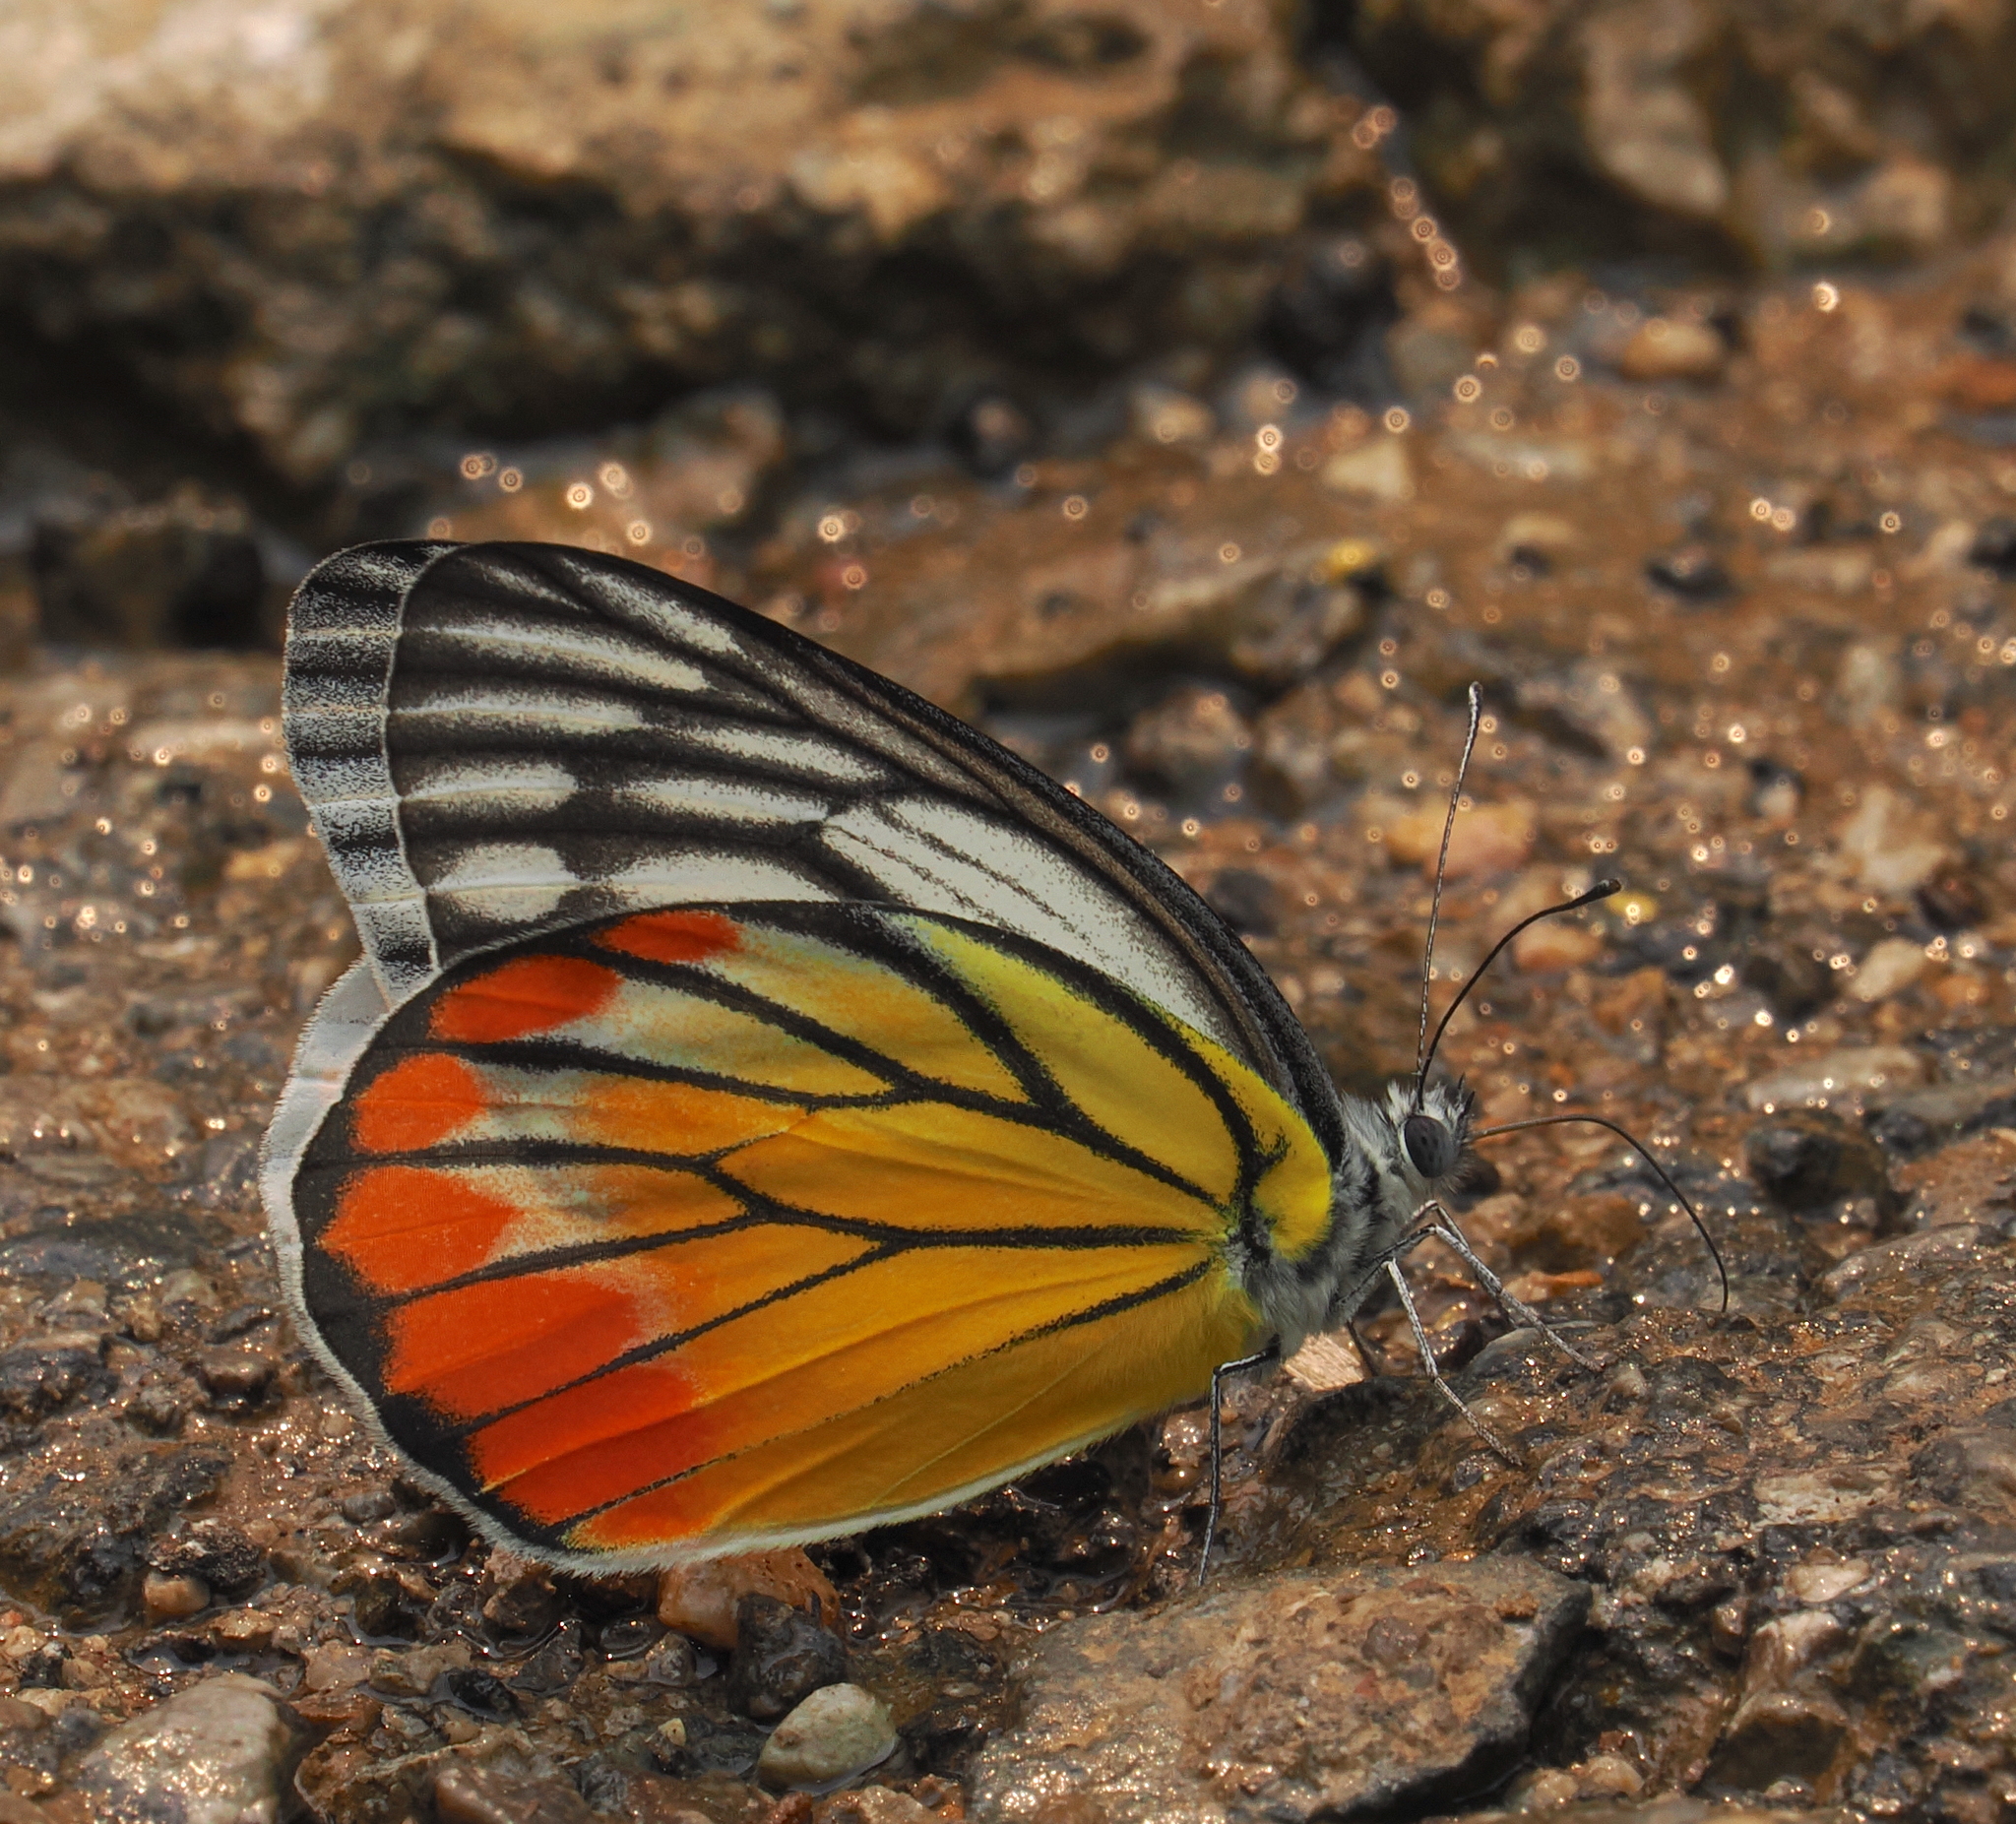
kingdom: Animalia
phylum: Arthropoda
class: Insecta
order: Lepidoptera
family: Pieridae
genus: Delias
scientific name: Delias hyparete
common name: Painted jezebel
